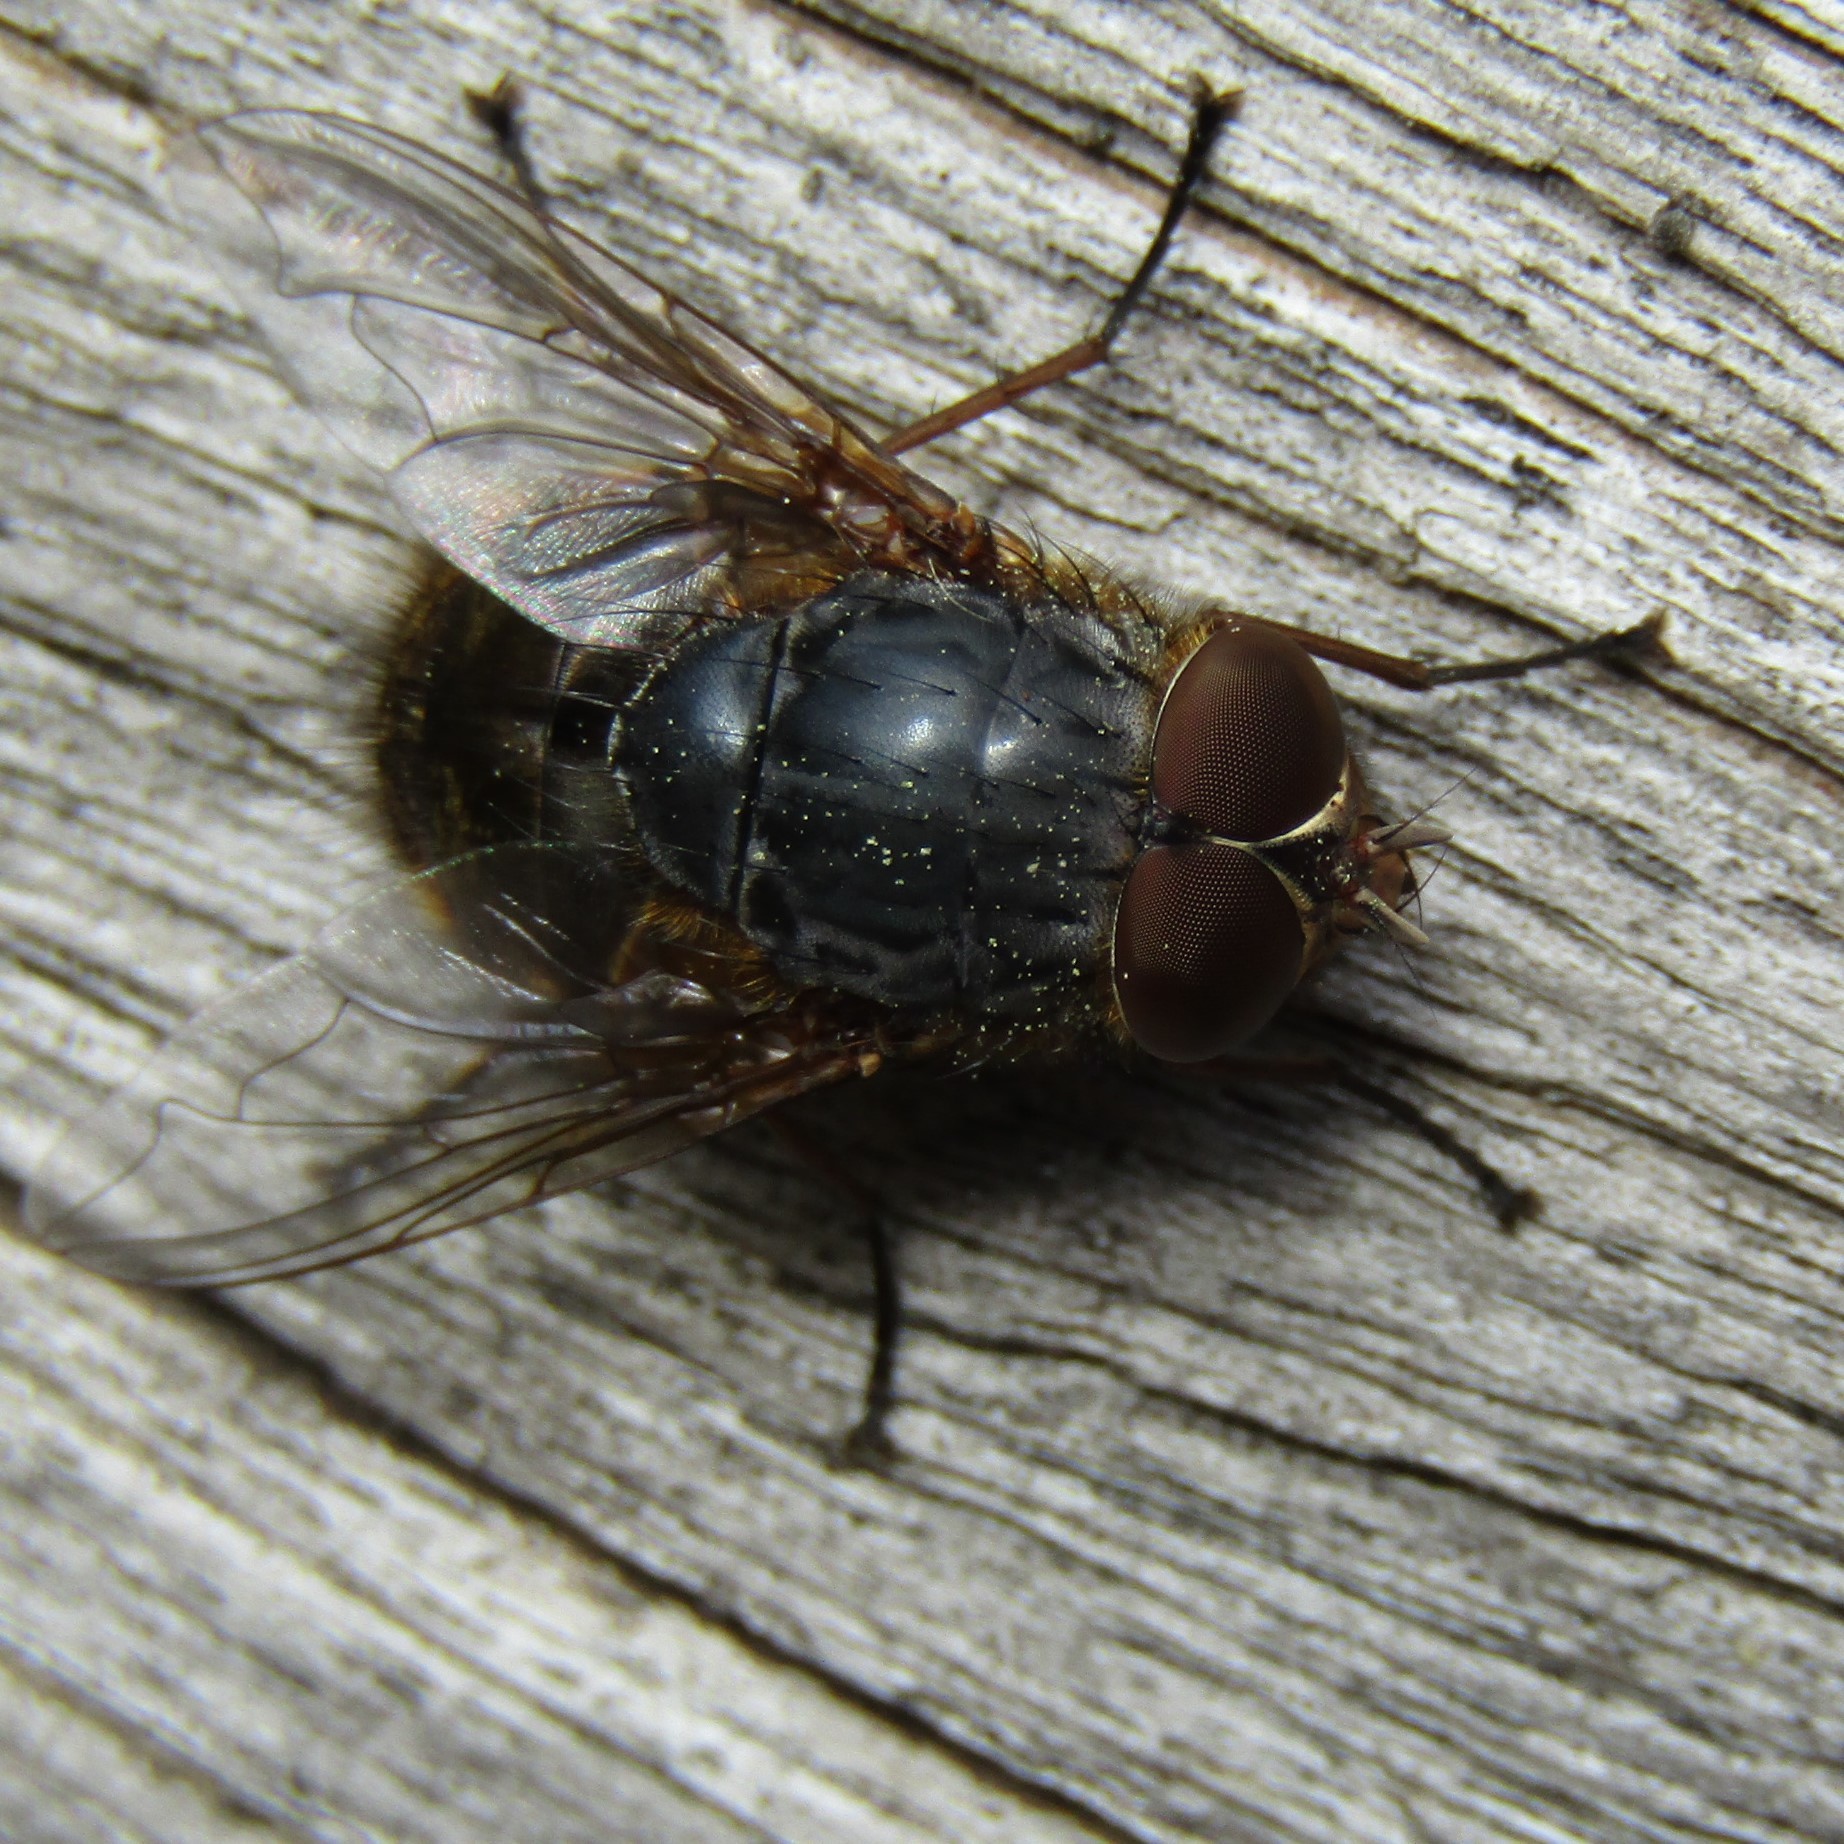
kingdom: Animalia
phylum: Arthropoda
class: Insecta
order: Diptera
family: Calliphoridae
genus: Calliphora
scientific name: Calliphora stygia
